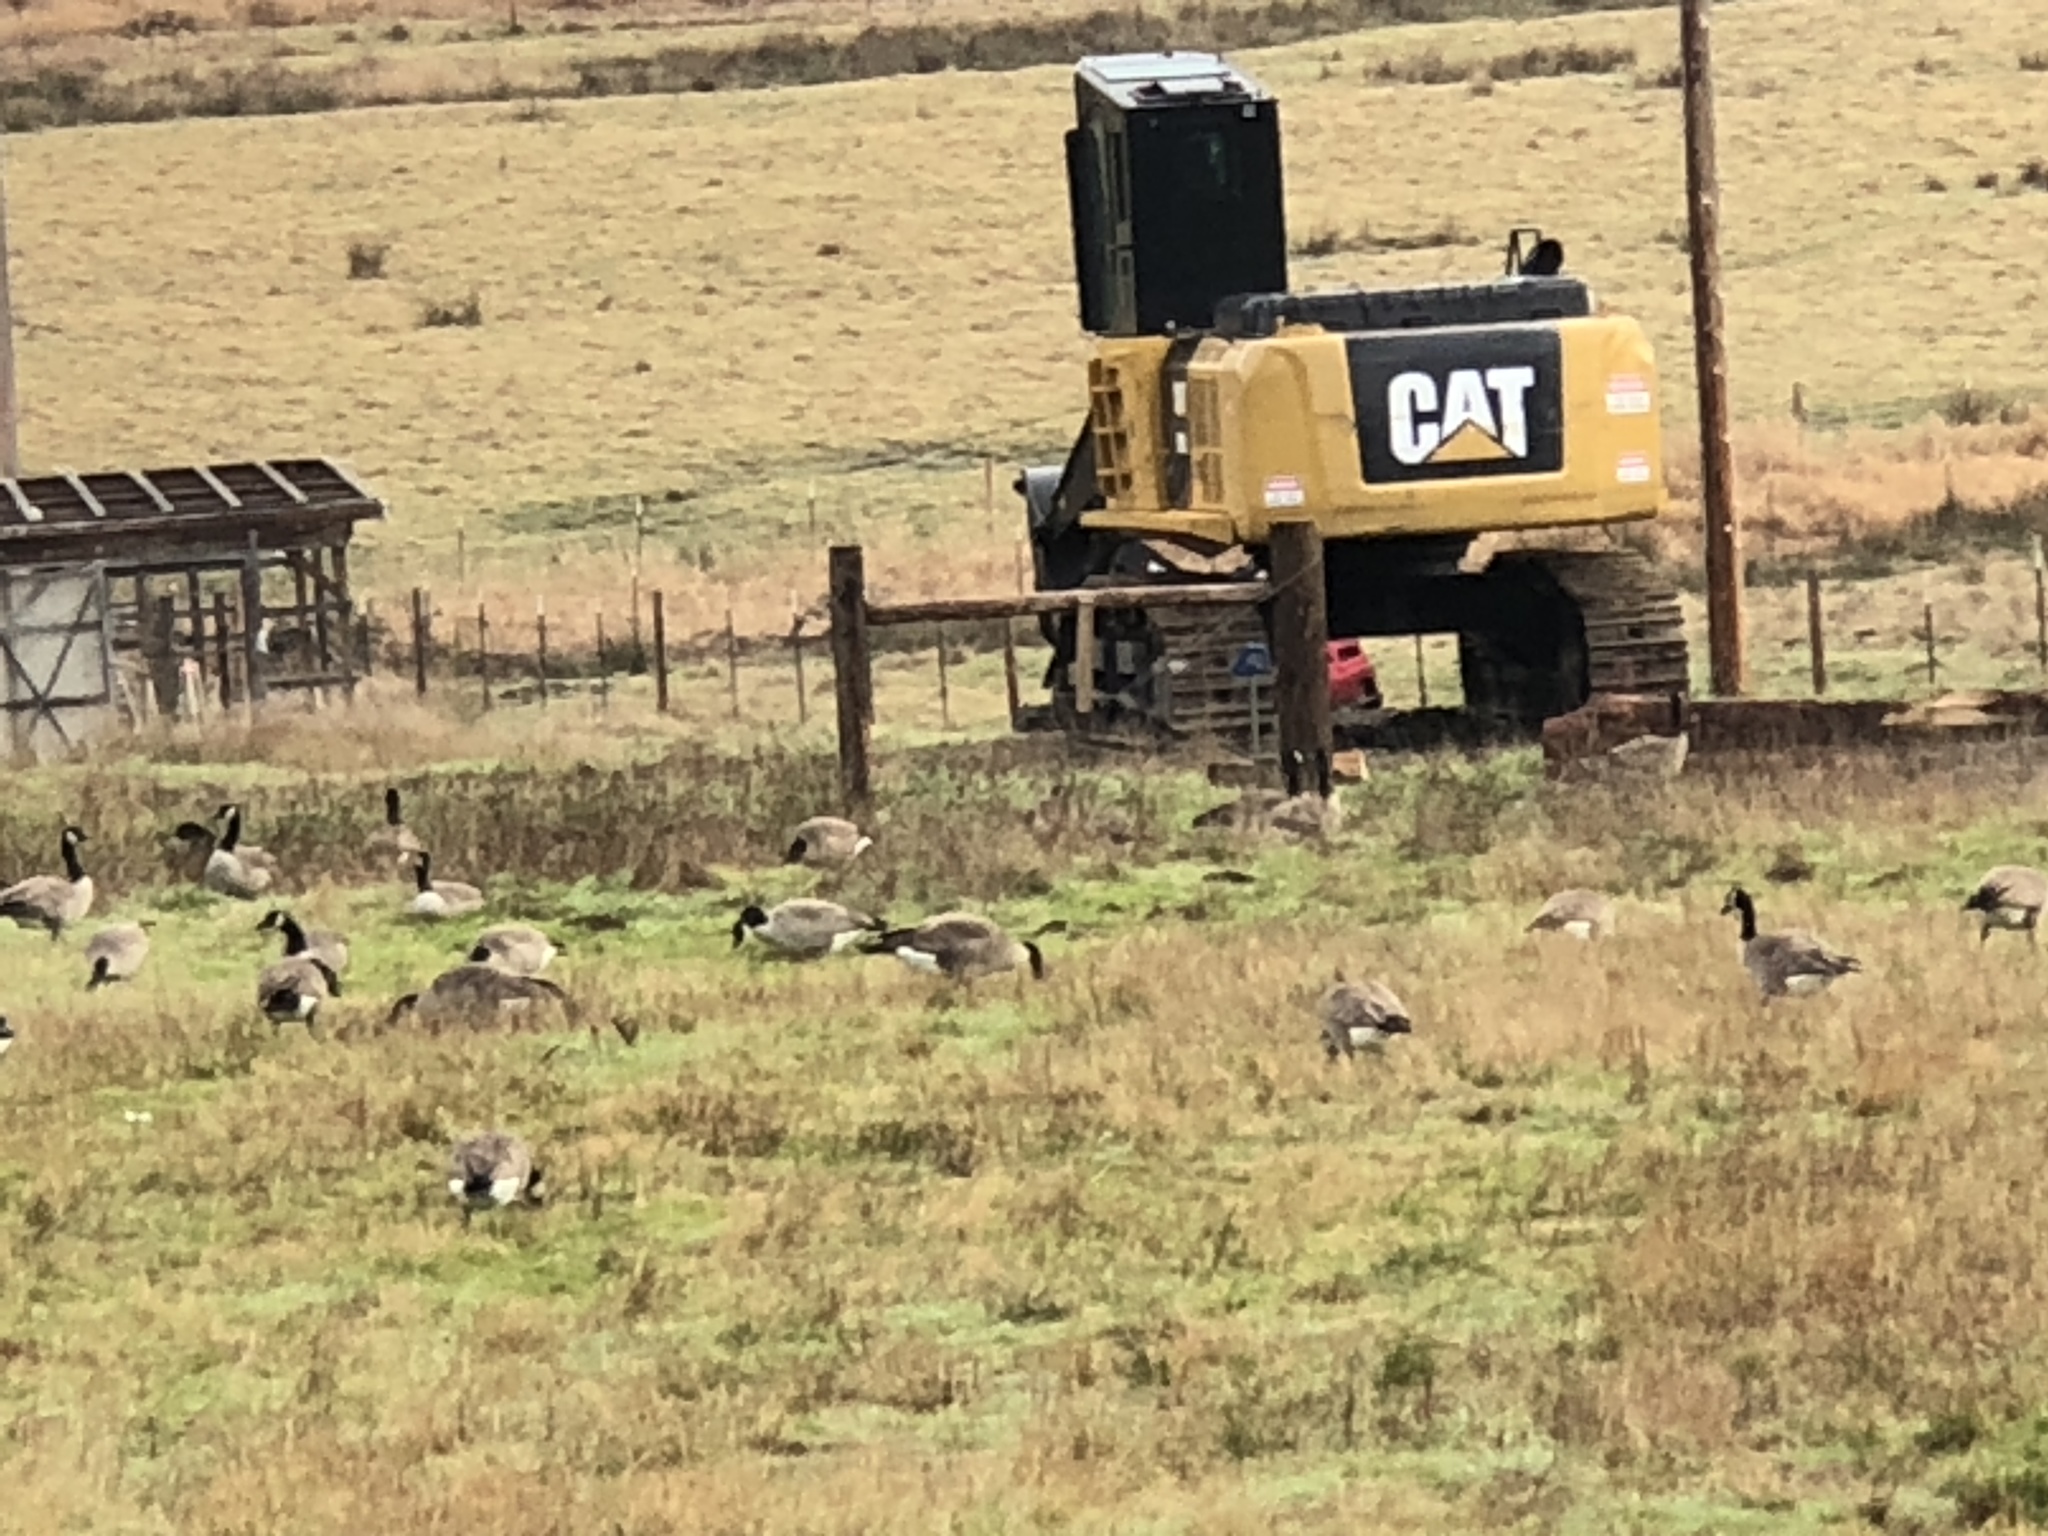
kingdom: Animalia
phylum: Chordata
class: Aves
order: Anseriformes
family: Anatidae
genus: Branta
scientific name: Branta canadensis
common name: Canada goose
